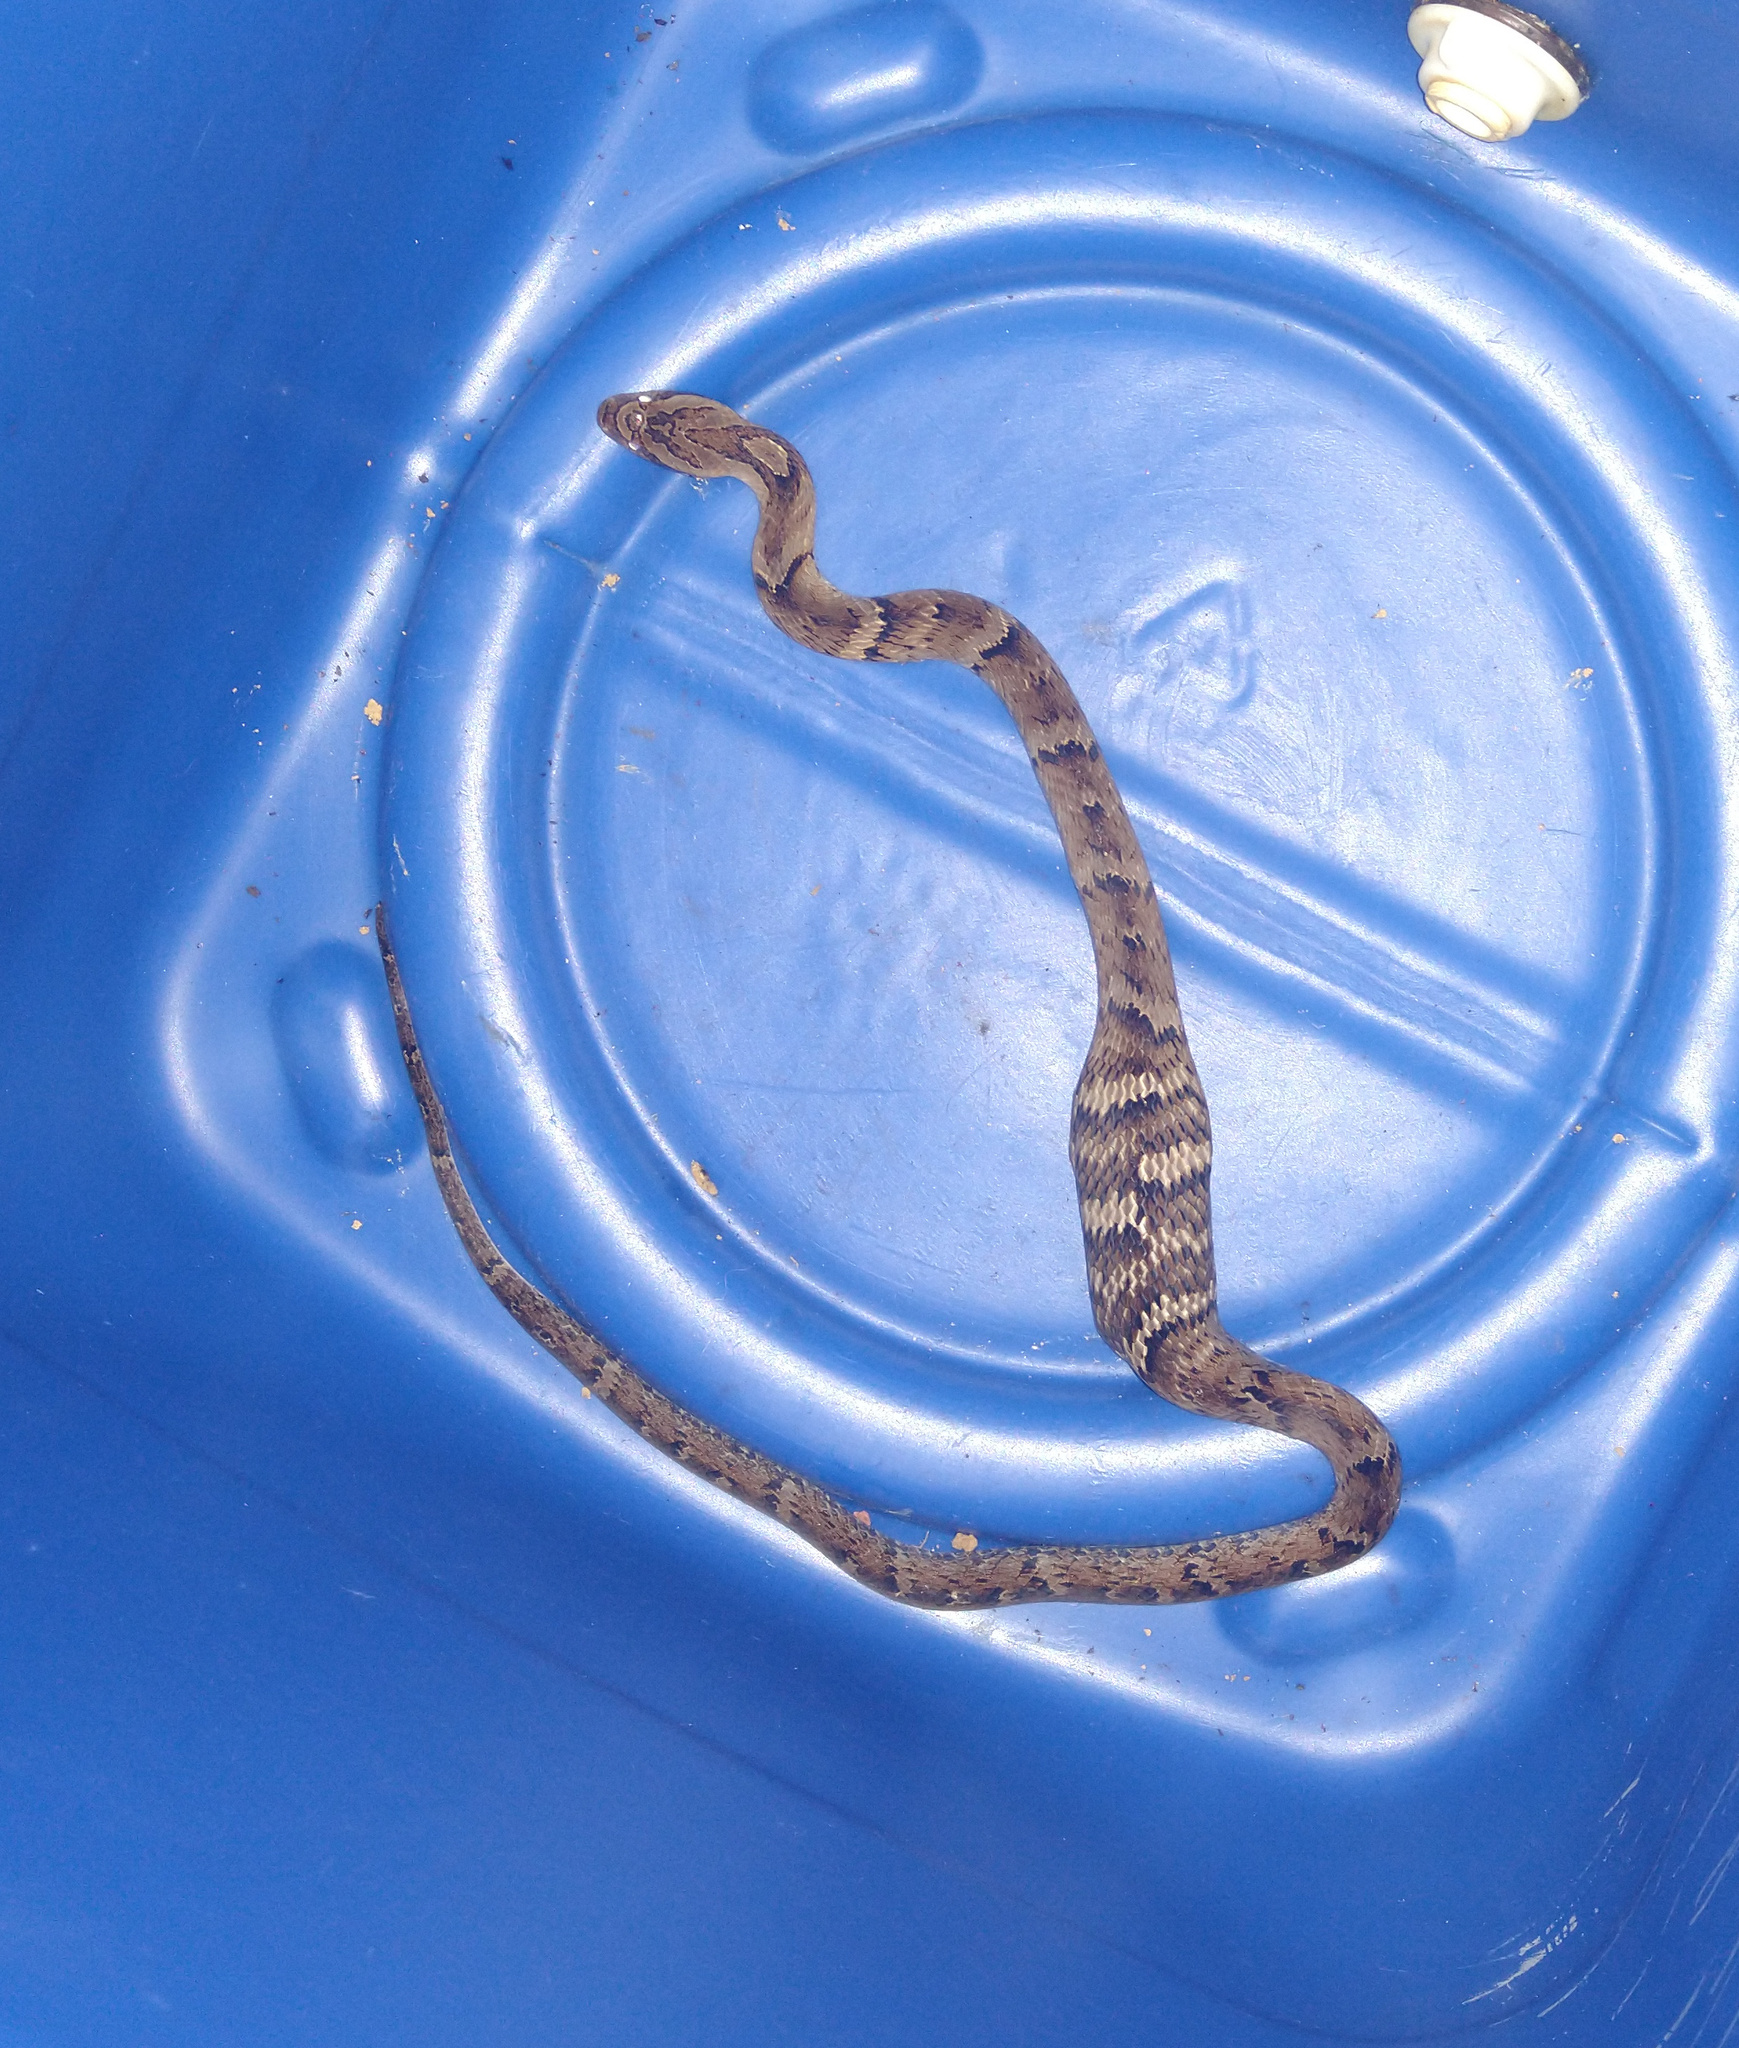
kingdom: Animalia
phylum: Chordata
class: Squamata
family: Colubridae
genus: Xenodon
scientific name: Xenodon neuwiedii
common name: Neuwied's false fer-de-lance
